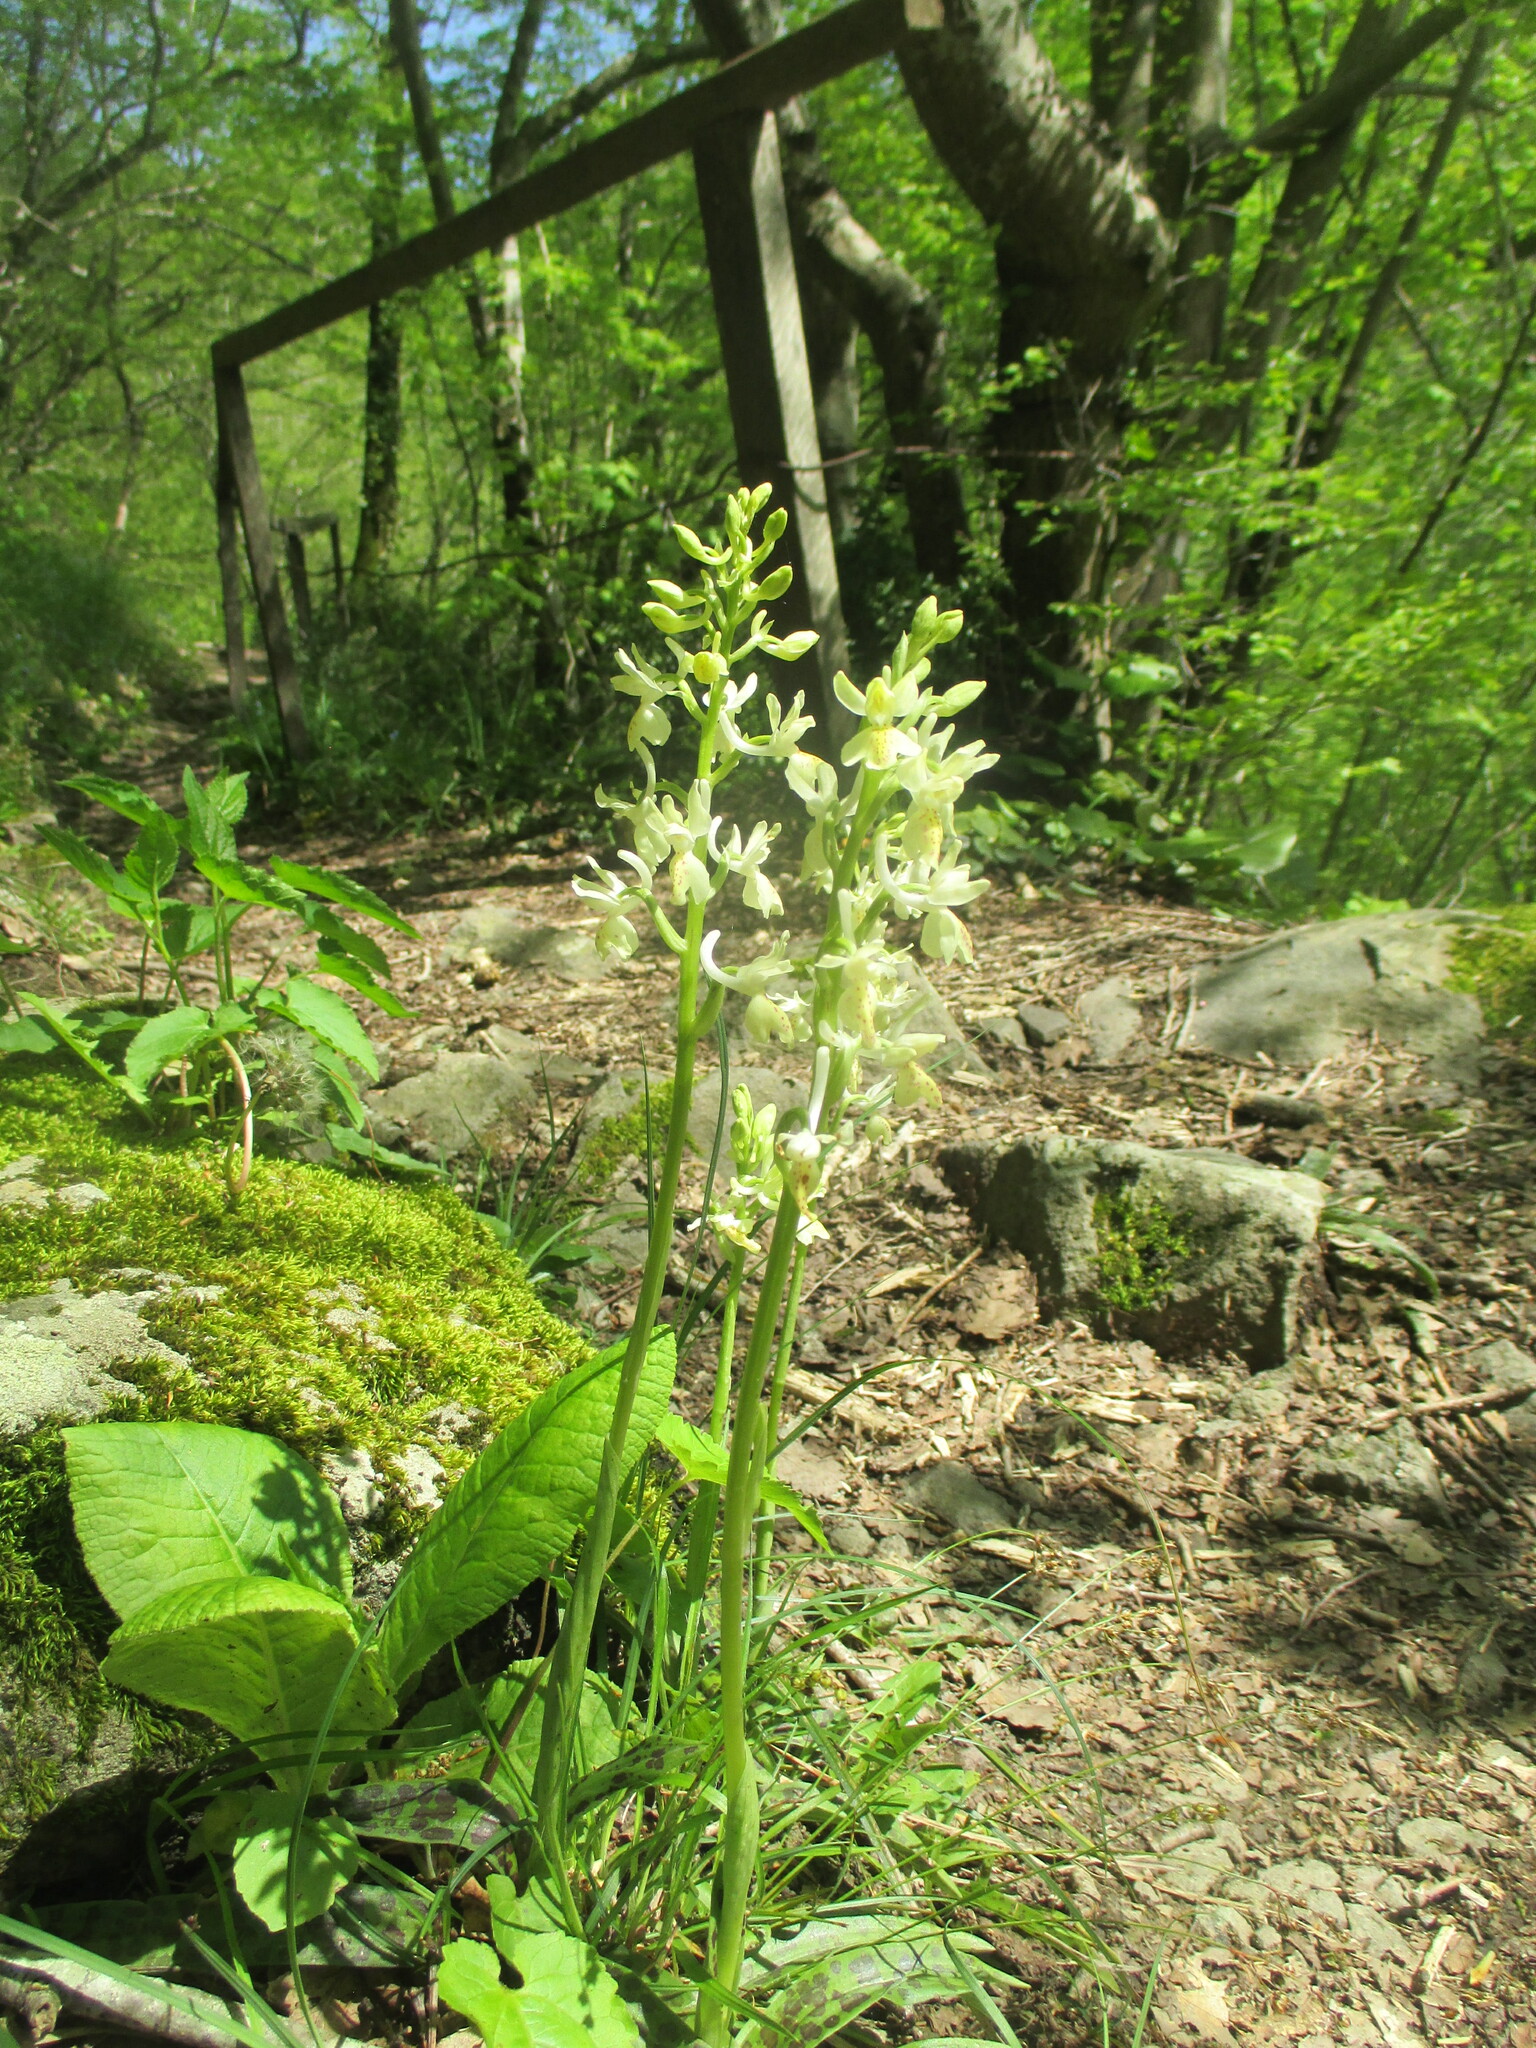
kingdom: Plantae
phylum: Tracheophyta
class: Liliopsida
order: Asparagales
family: Orchidaceae
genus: Orchis
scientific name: Orchis provincialis
